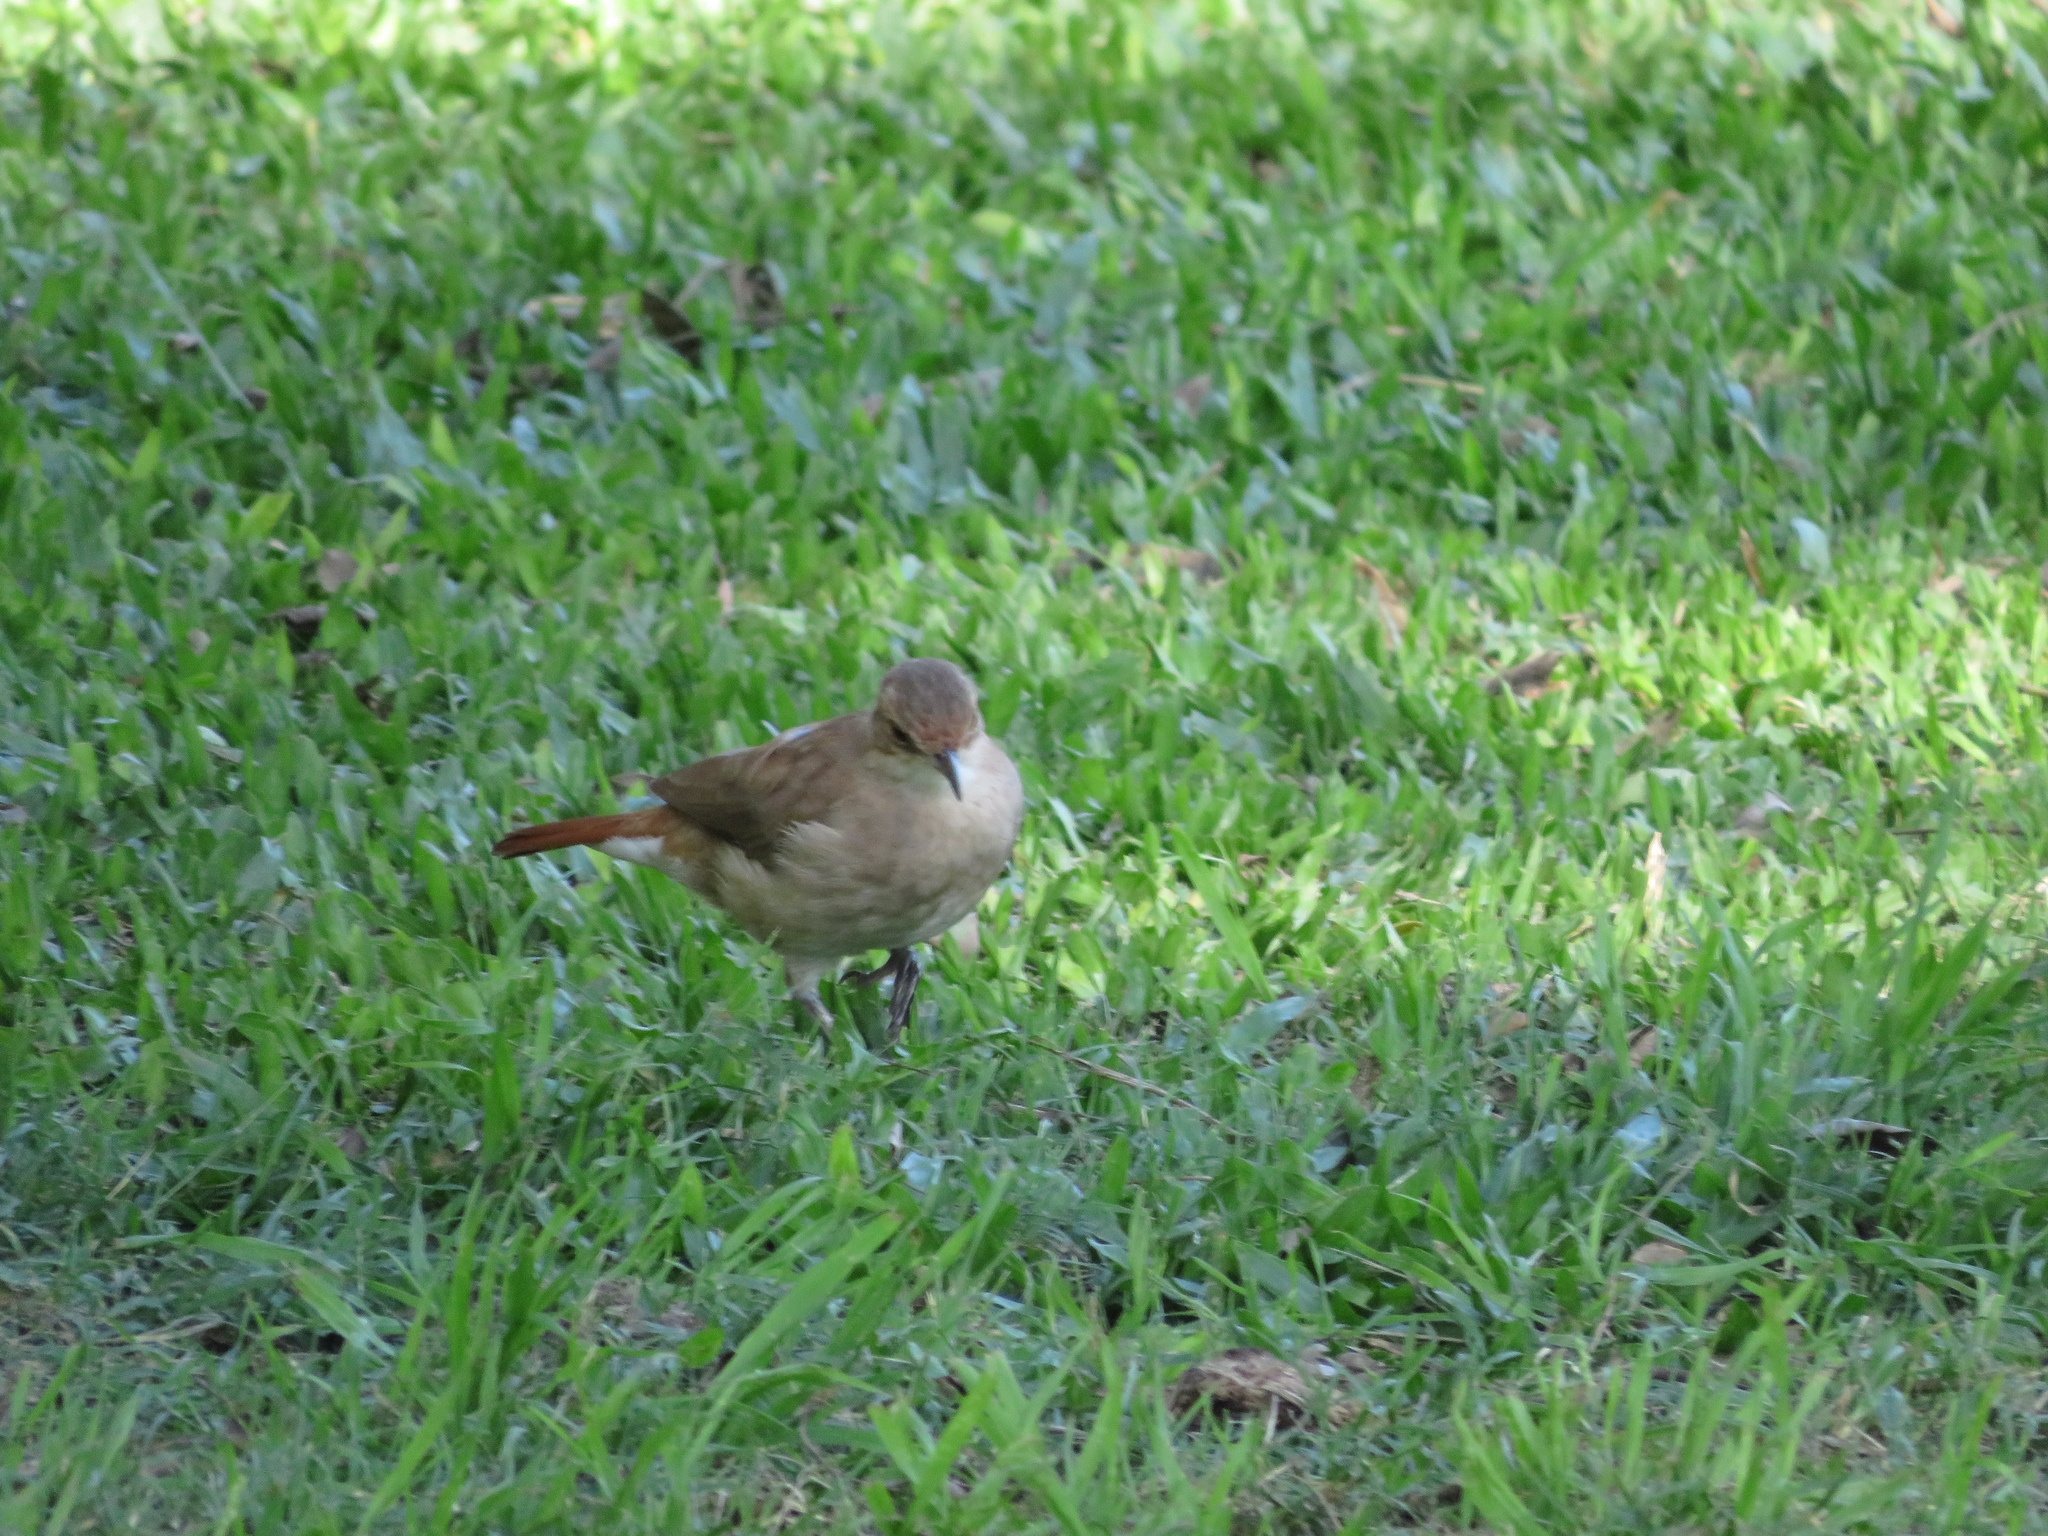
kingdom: Animalia
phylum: Chordata
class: Aves
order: Passeriformes
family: Furnariidae
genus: Furnarius
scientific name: Furnarius rufus
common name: Rufous hornero
